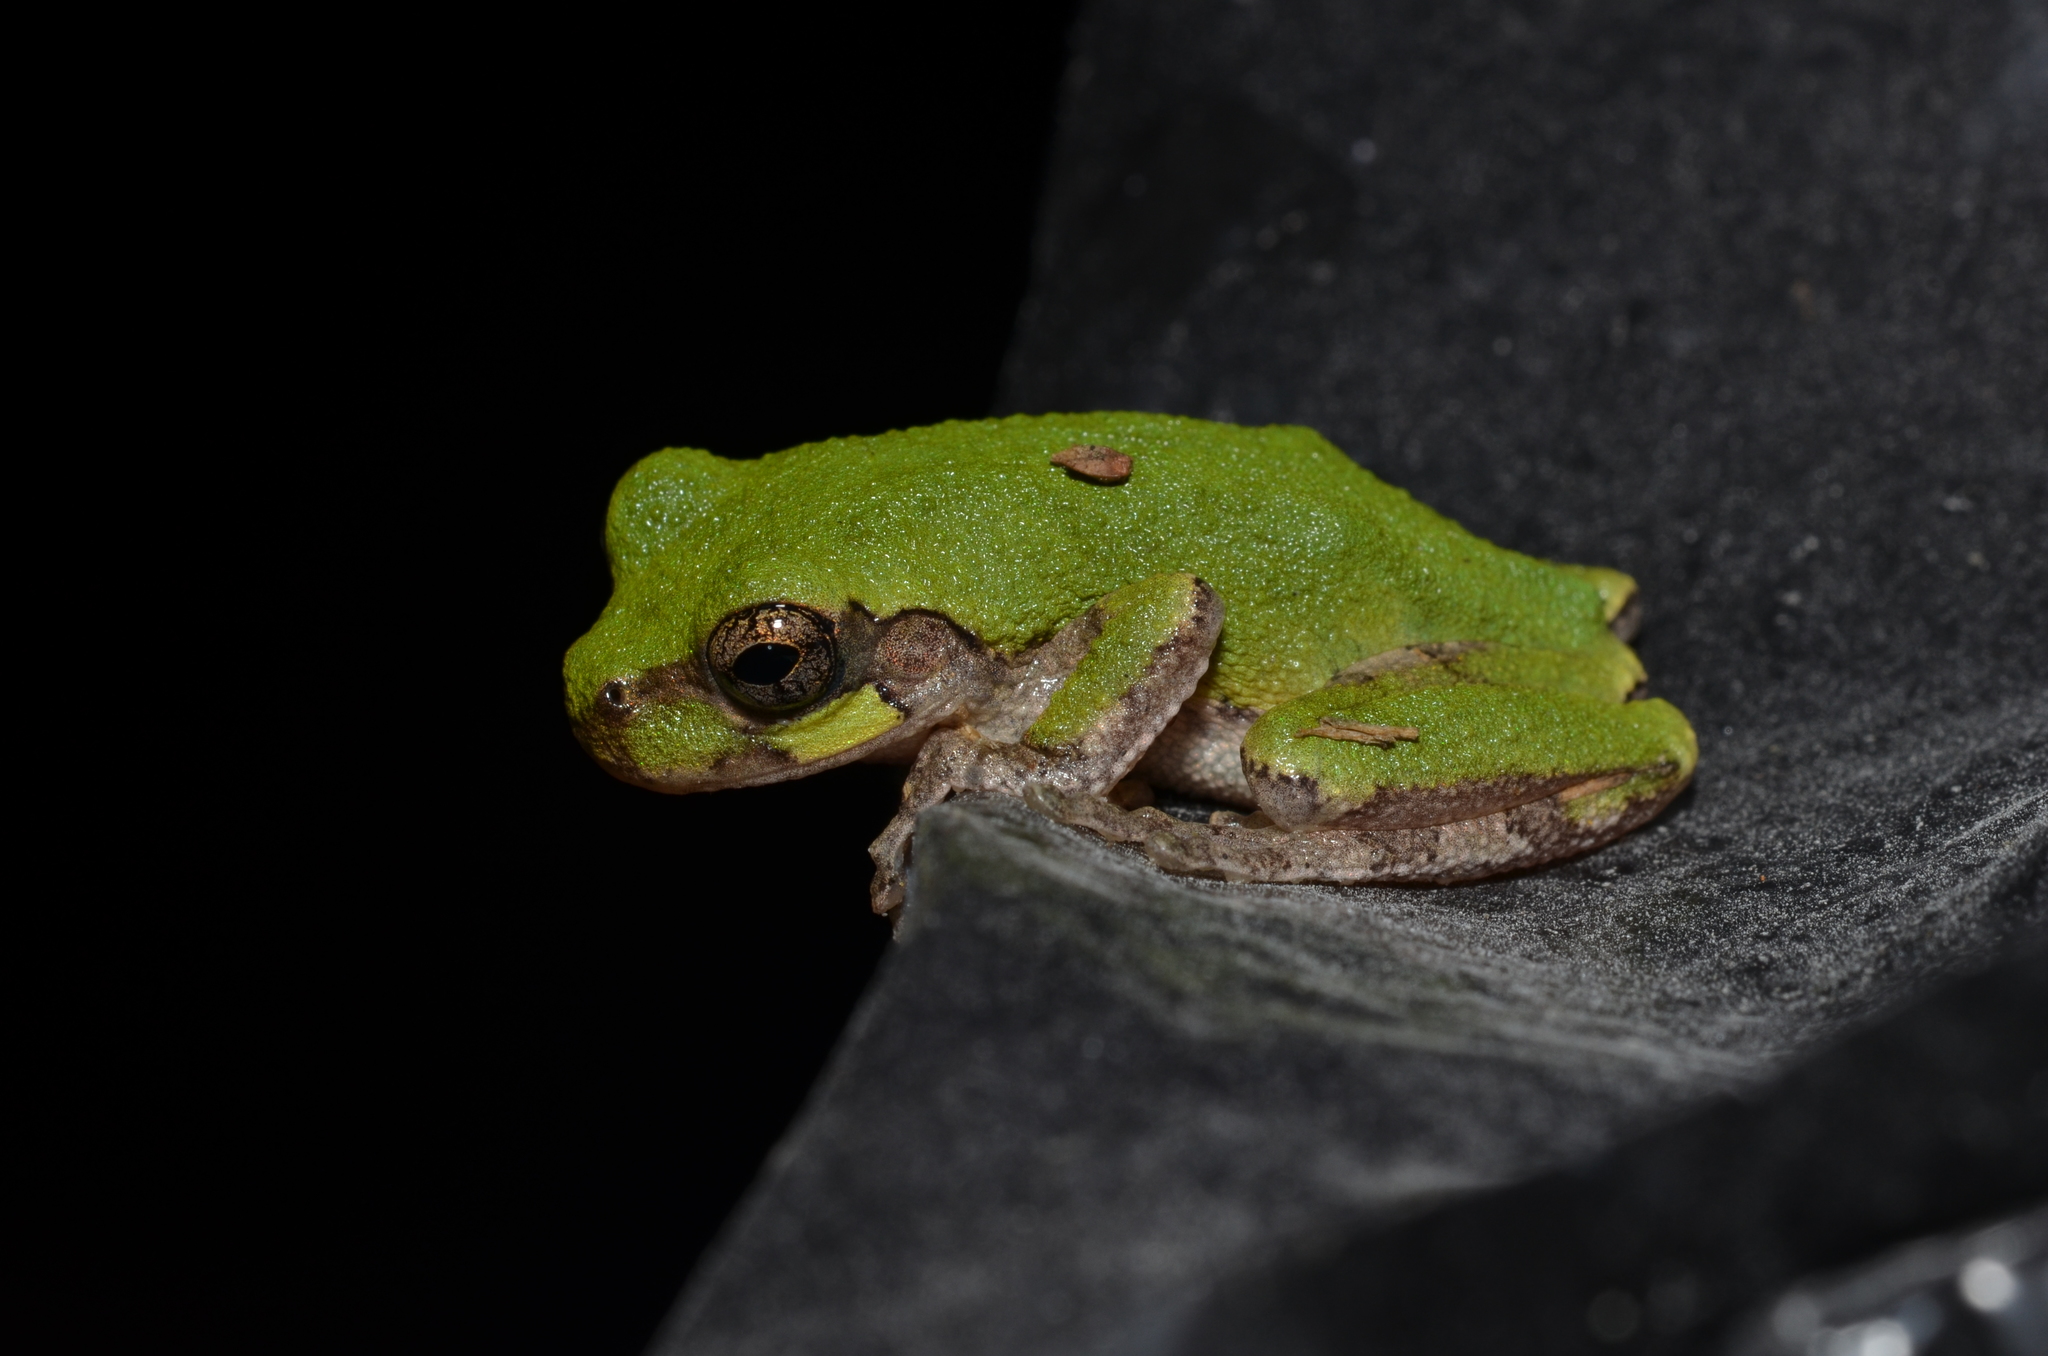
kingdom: Animalia
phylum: Chordata
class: Amphibia
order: Anura
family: Hylidae
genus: Hyla
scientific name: Hyla
